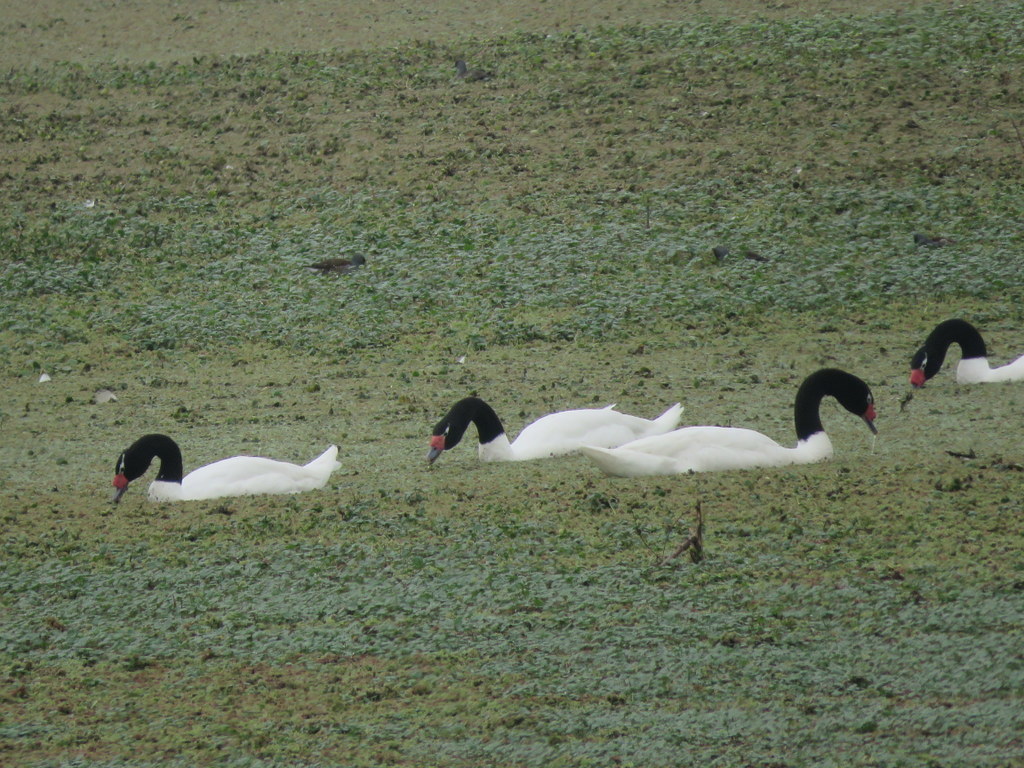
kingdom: Animalia
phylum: Chordata
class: Aves
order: Anseriformes
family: Anatidae
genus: Cygnus
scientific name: Cygnus melancoryphus
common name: Black-necked swan
